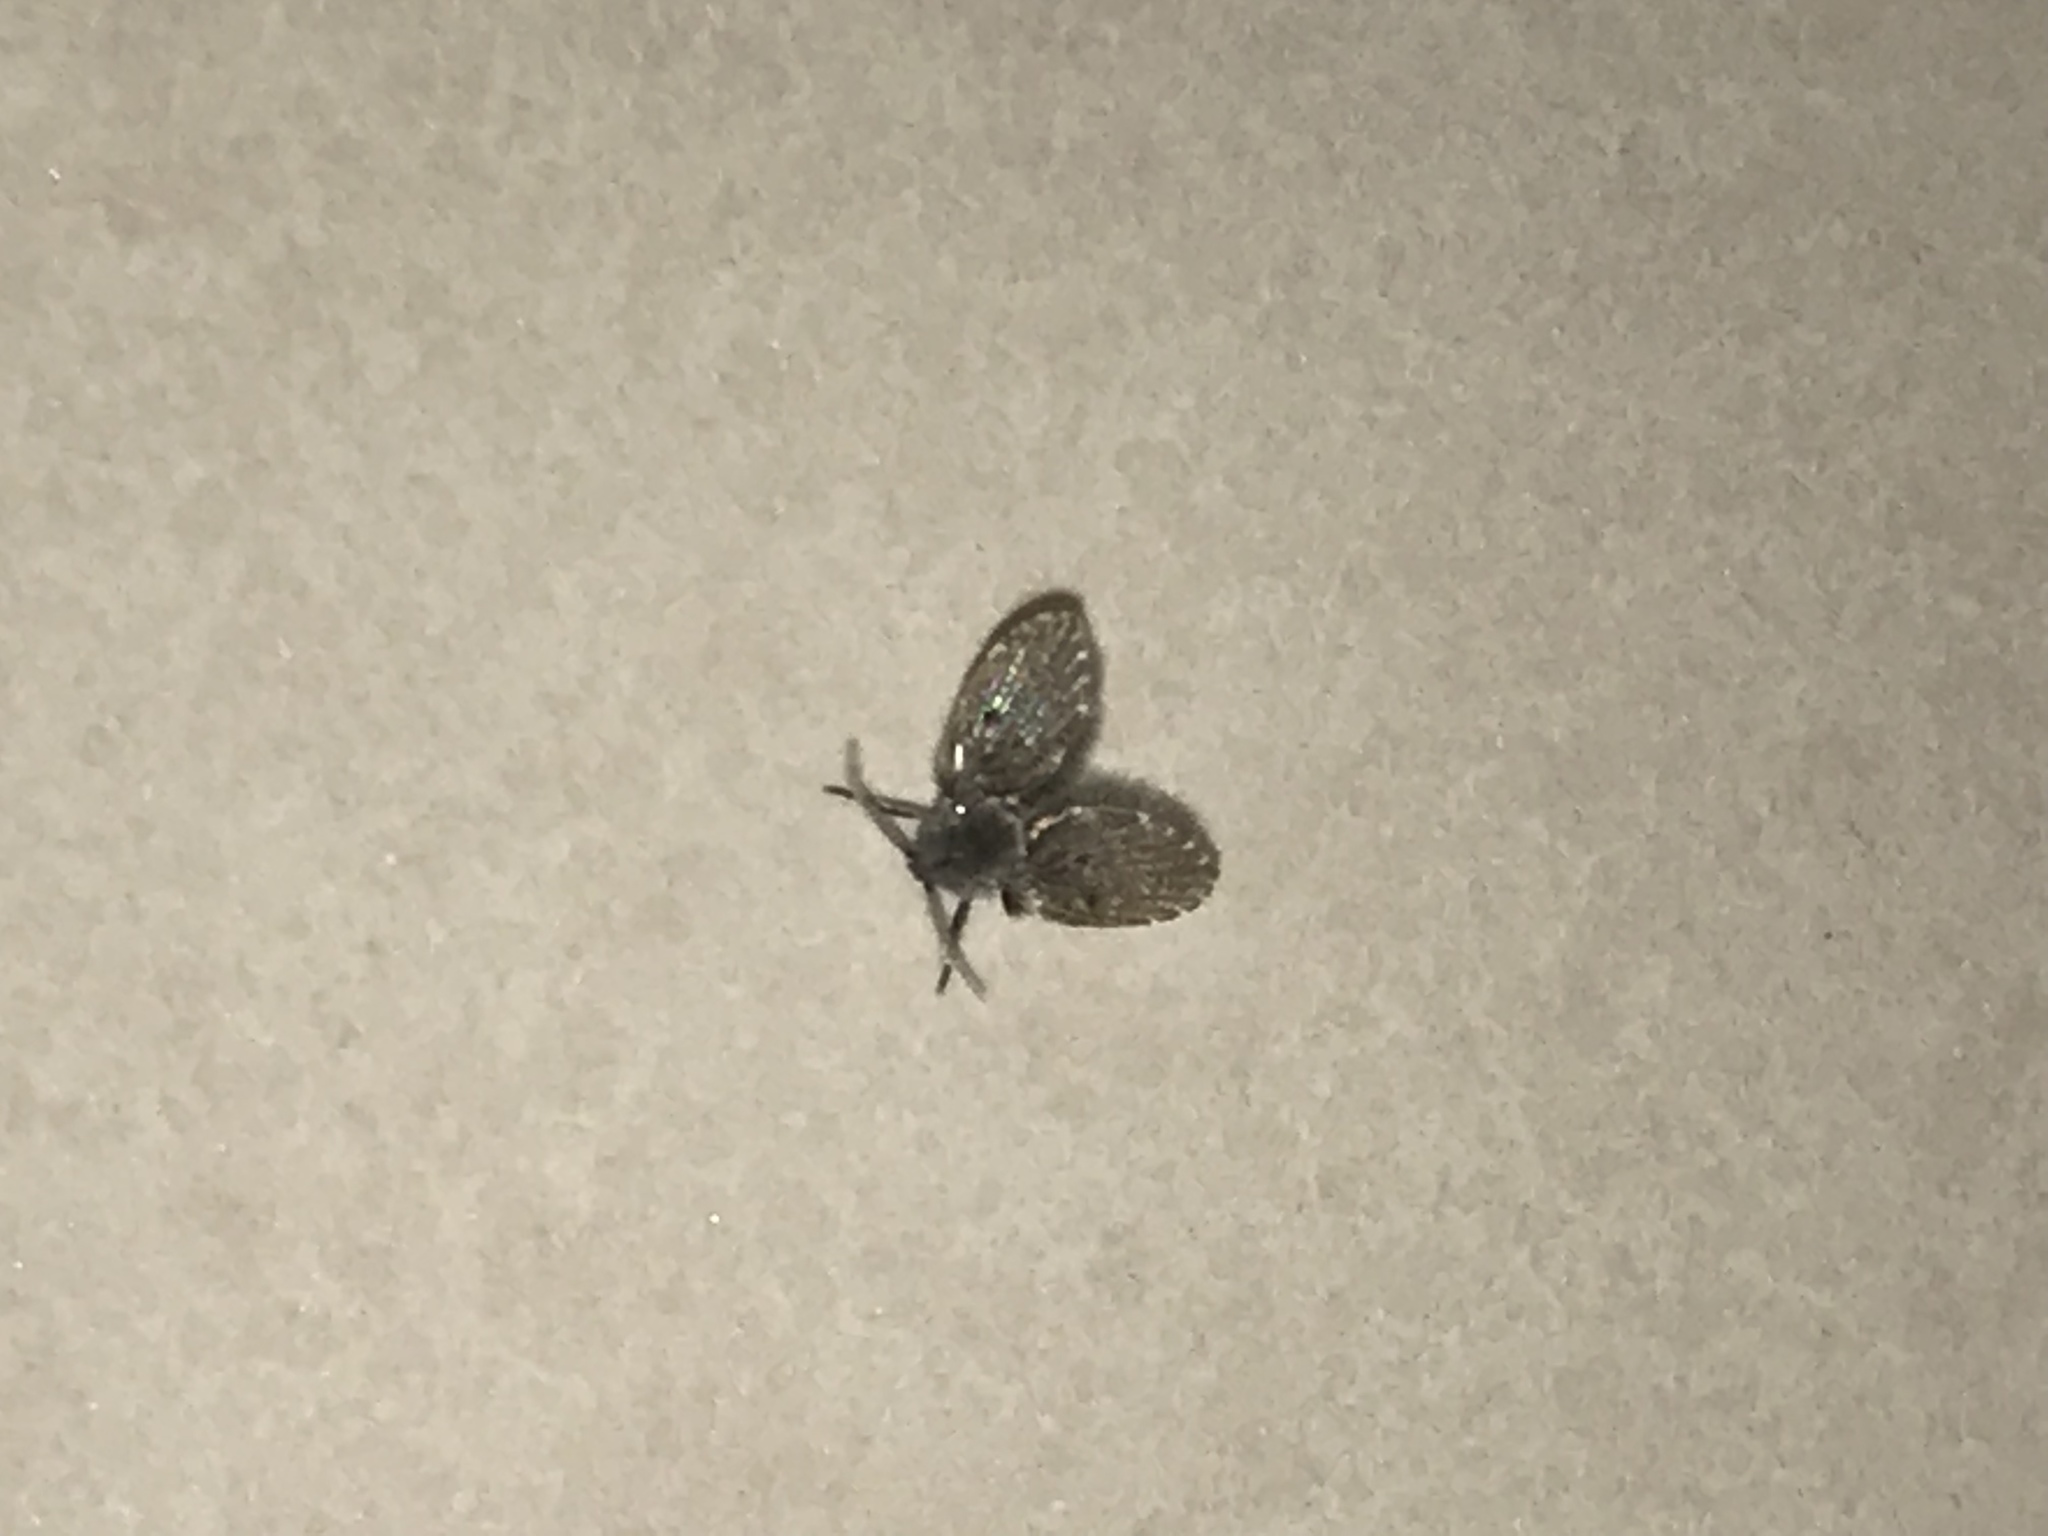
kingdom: Animalia
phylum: Arthropoda
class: Insecta
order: Diptera
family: Psychodidae
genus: Clogmia
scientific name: Clogmia albipunctatus
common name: White-spotted moth fly
